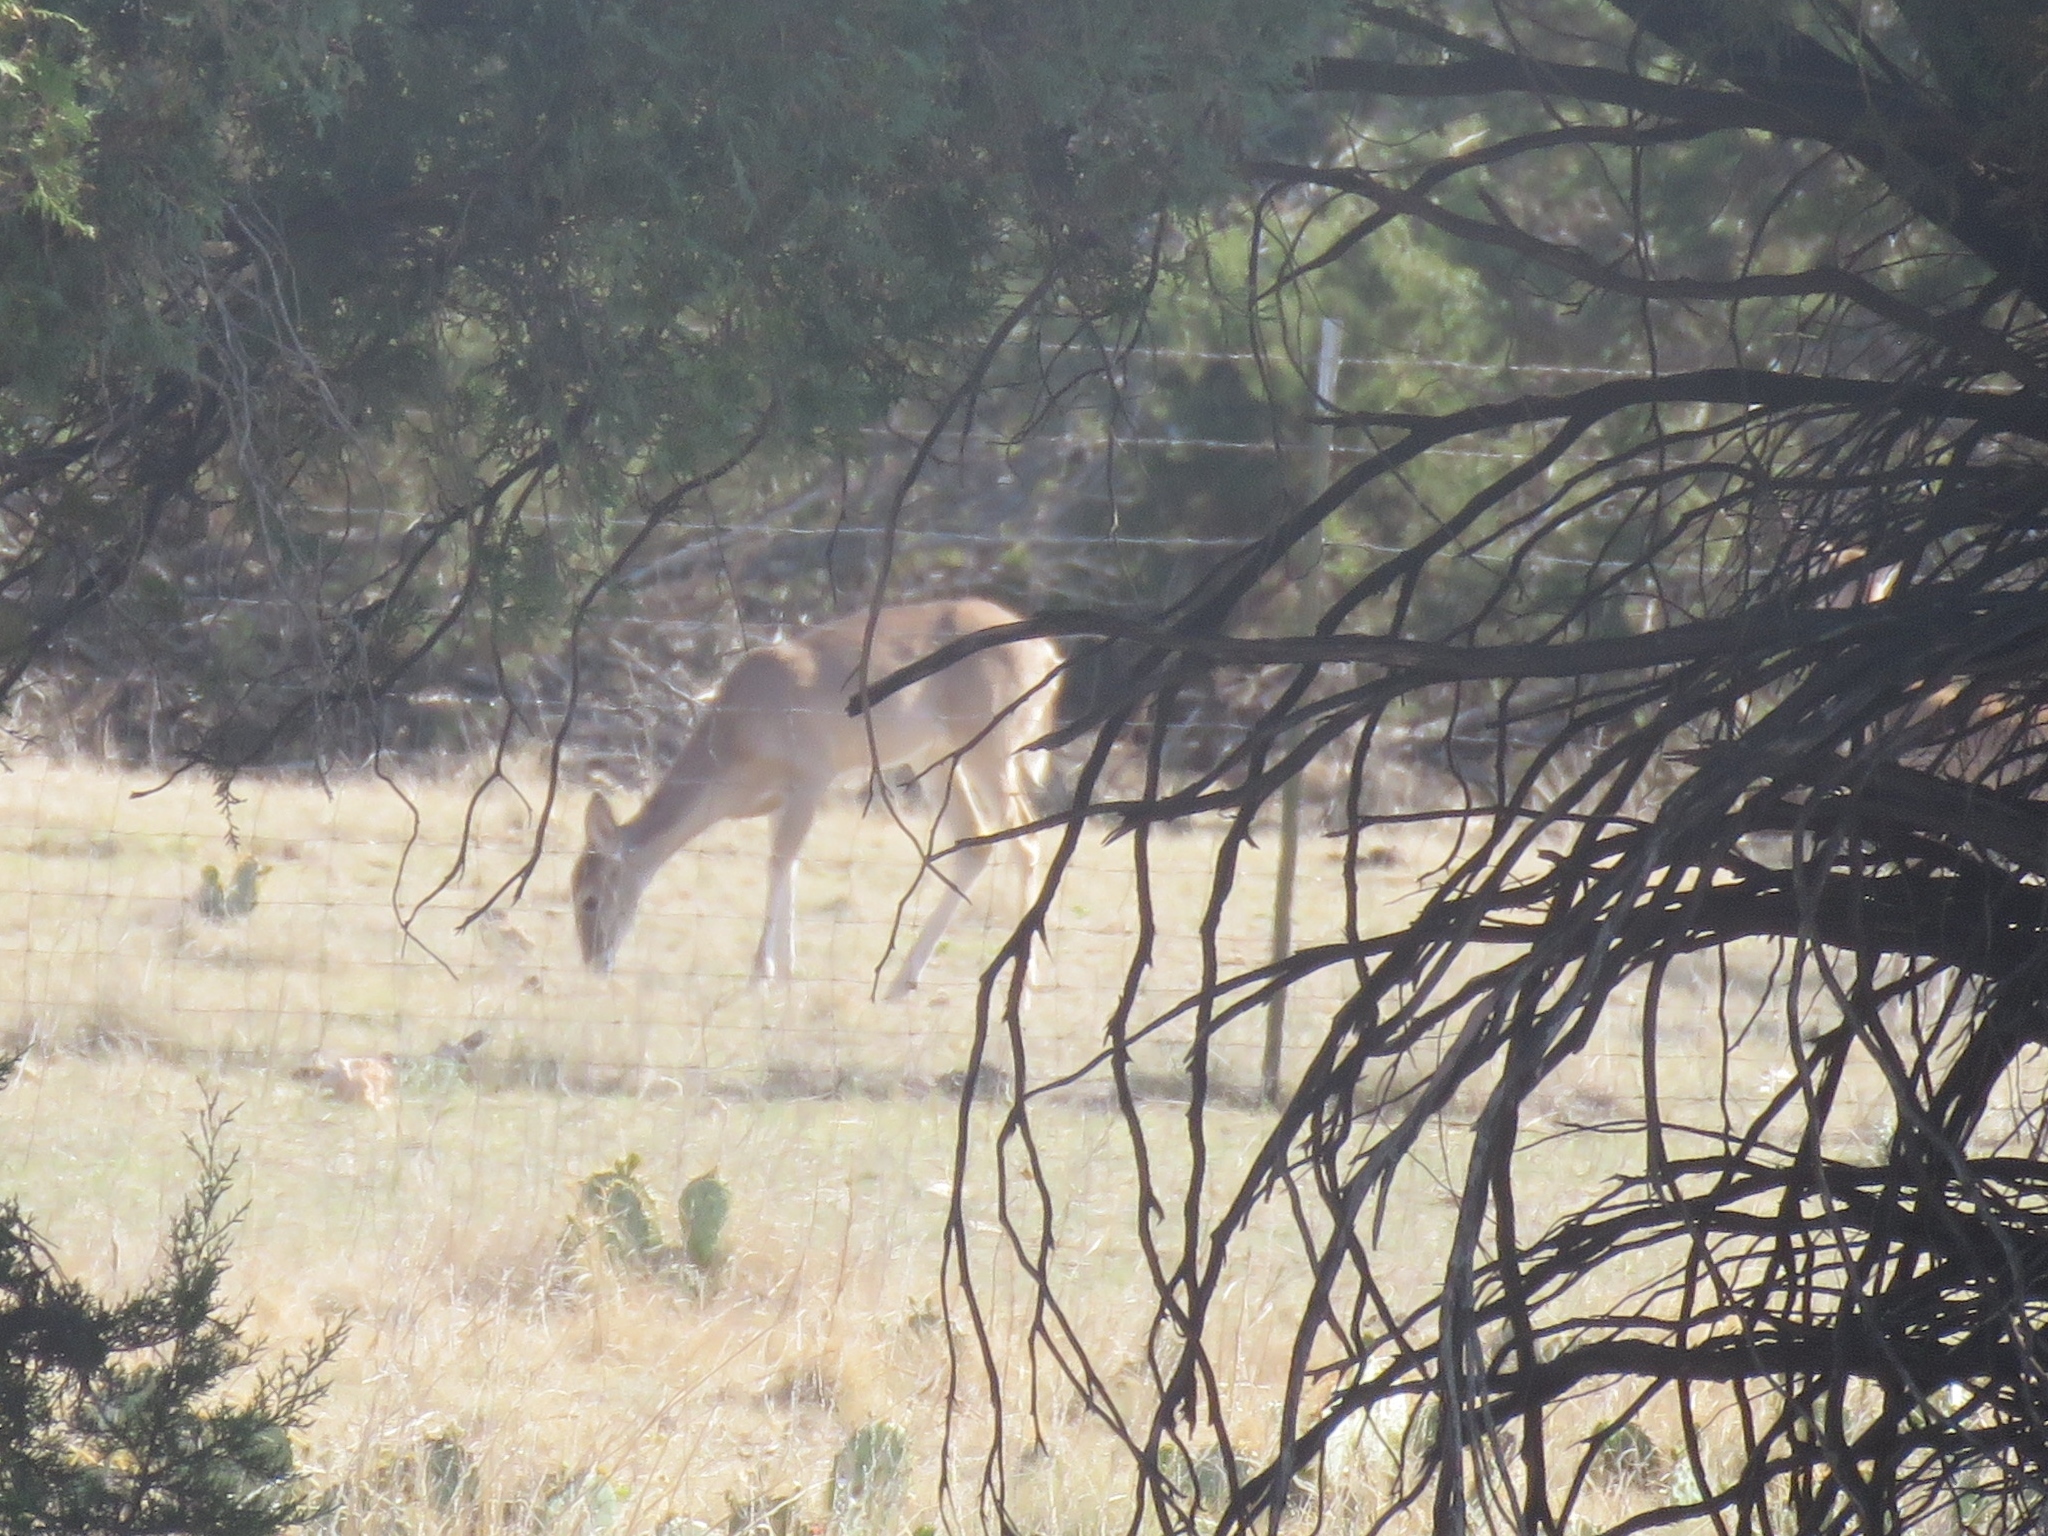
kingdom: Animalia
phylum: Chordata
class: Mammalia
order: Artiodactyla
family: Cervidae
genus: Odocoileus
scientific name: Odocoileus virginianus
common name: White-tailed deer
